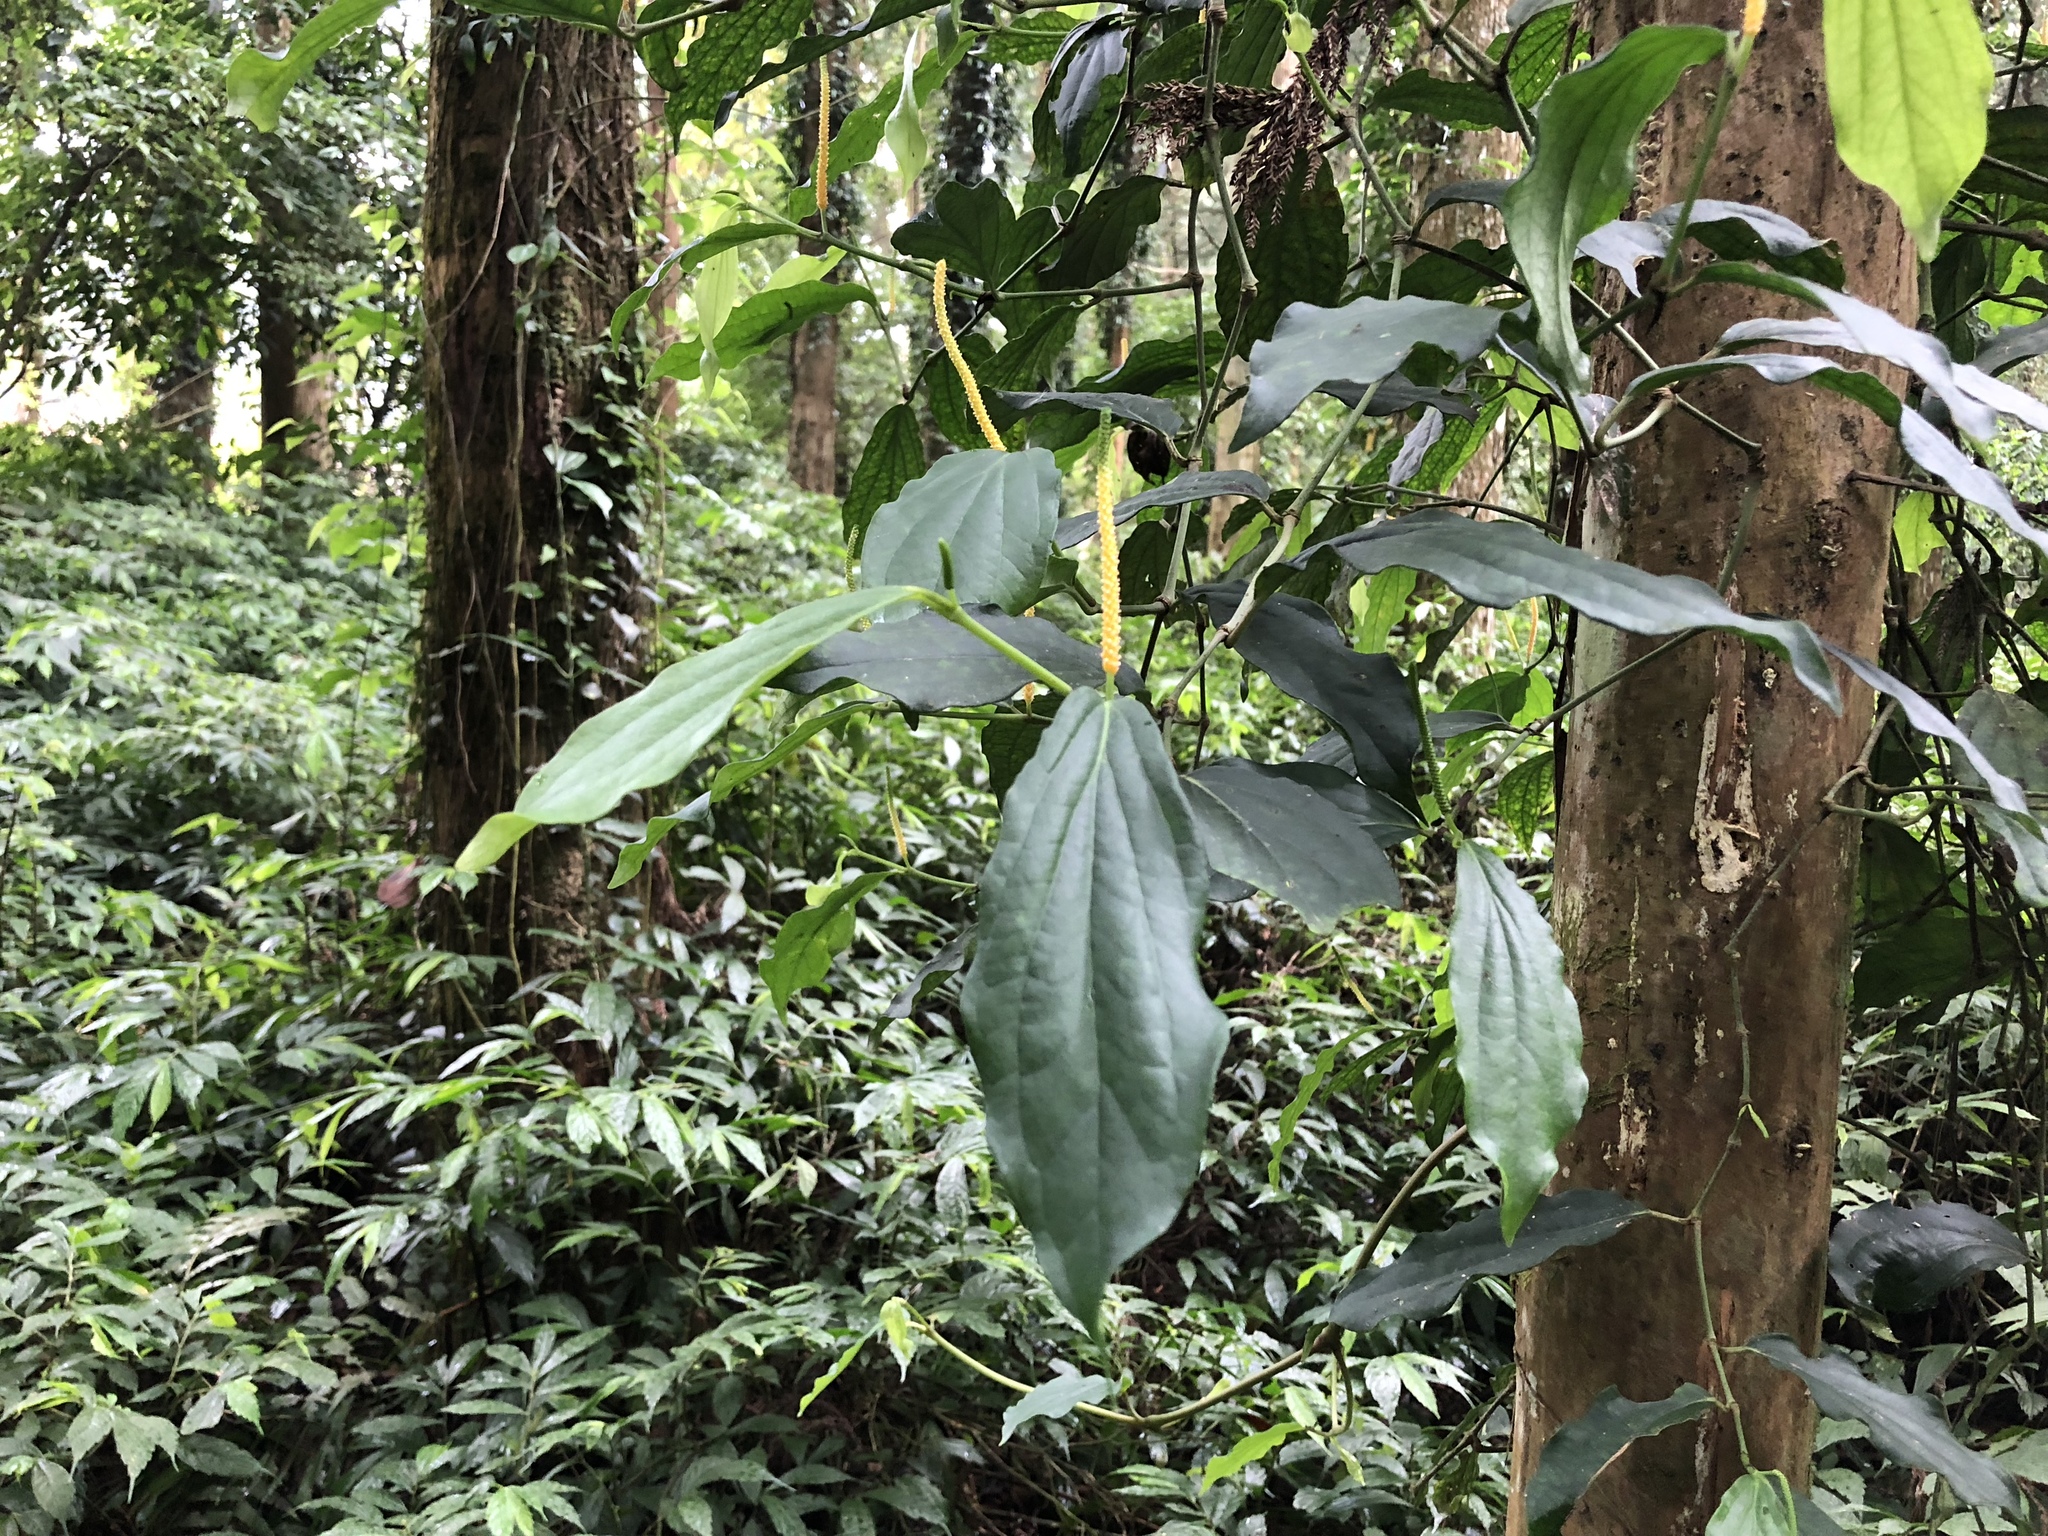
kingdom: Plantae
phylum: Tracheophyta
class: Magnoliopsida
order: Piperales
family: Piperaceae
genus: Piper
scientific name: Piper kadsura
